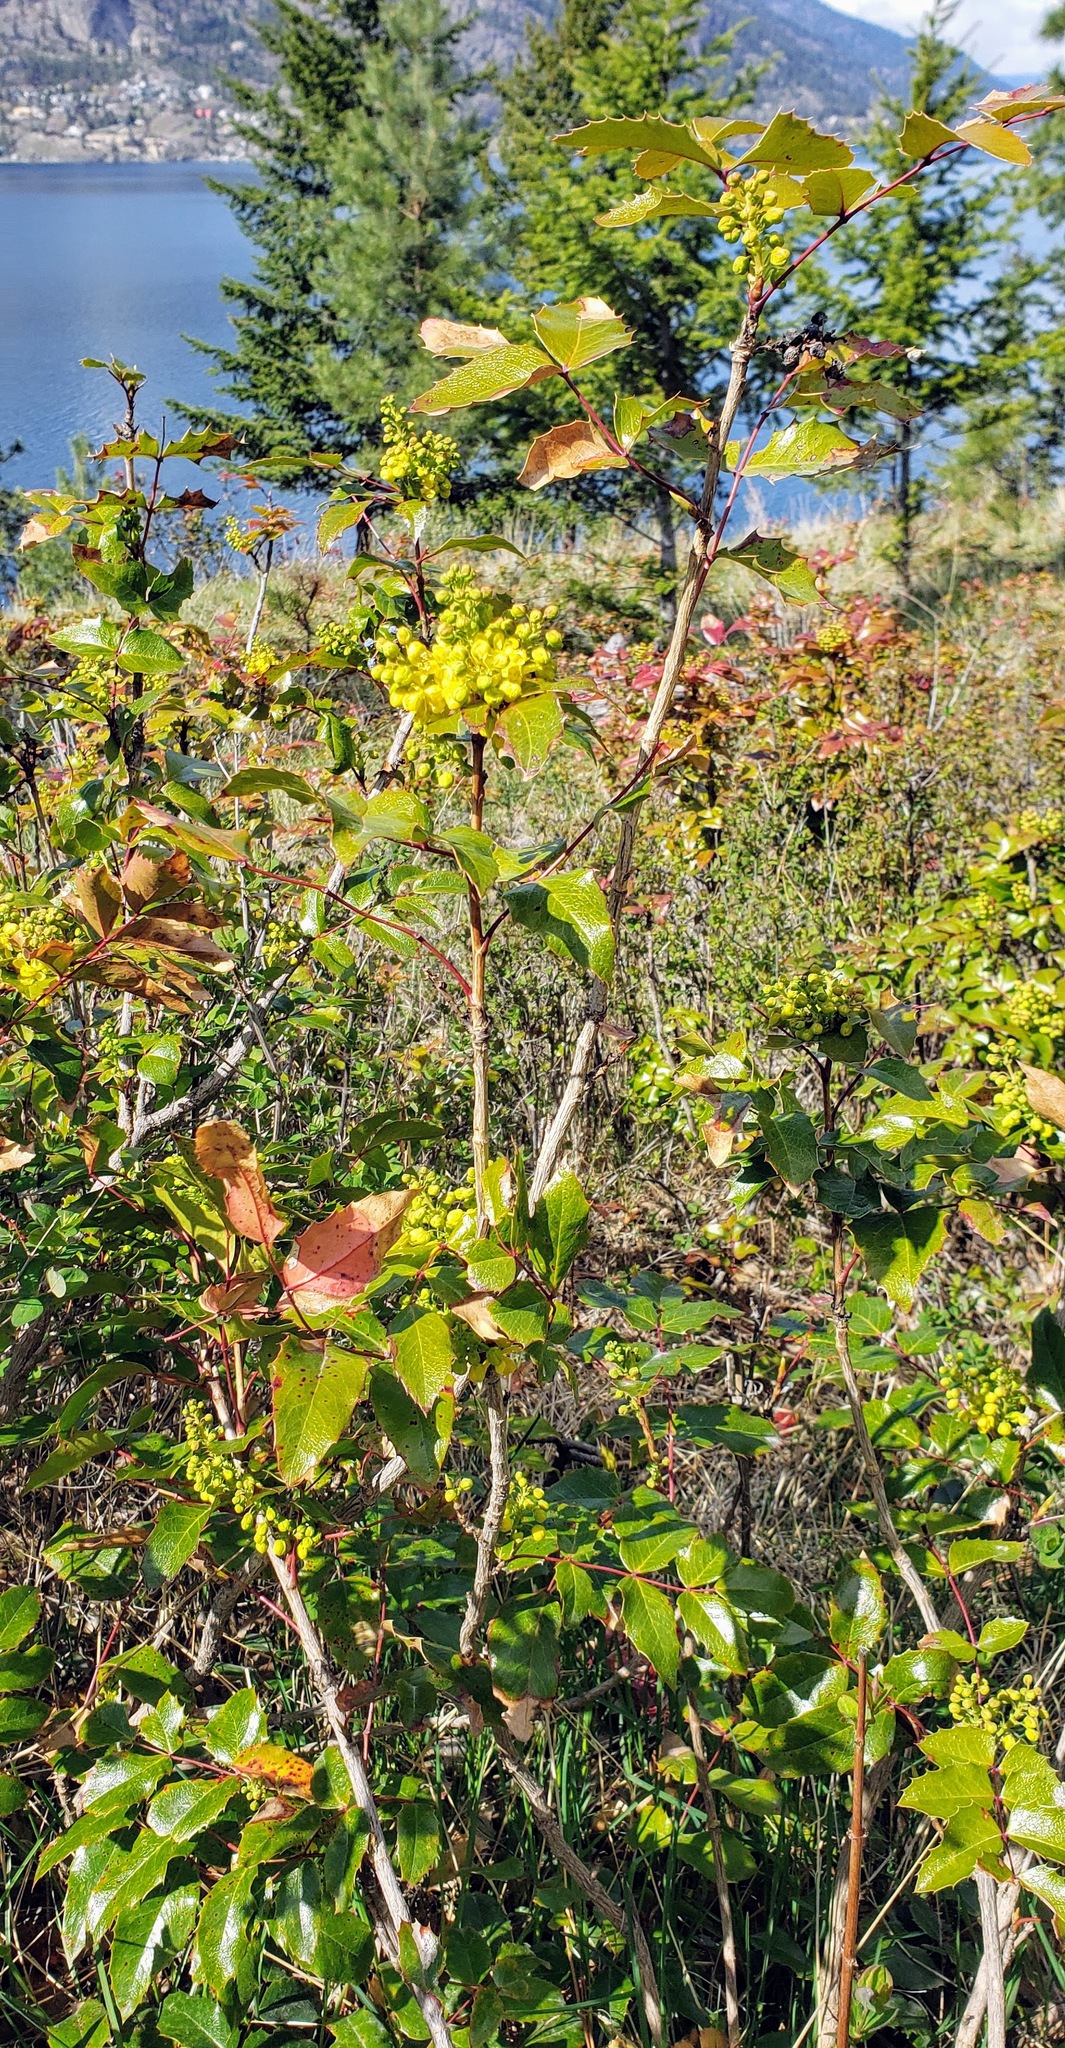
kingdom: Plantae
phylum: Tracheophyta
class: Magnoliopsida
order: Ranunculales
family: Berberidaceae
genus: Mahonia
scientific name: Mahonia aquifolium
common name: Oregon-grape
